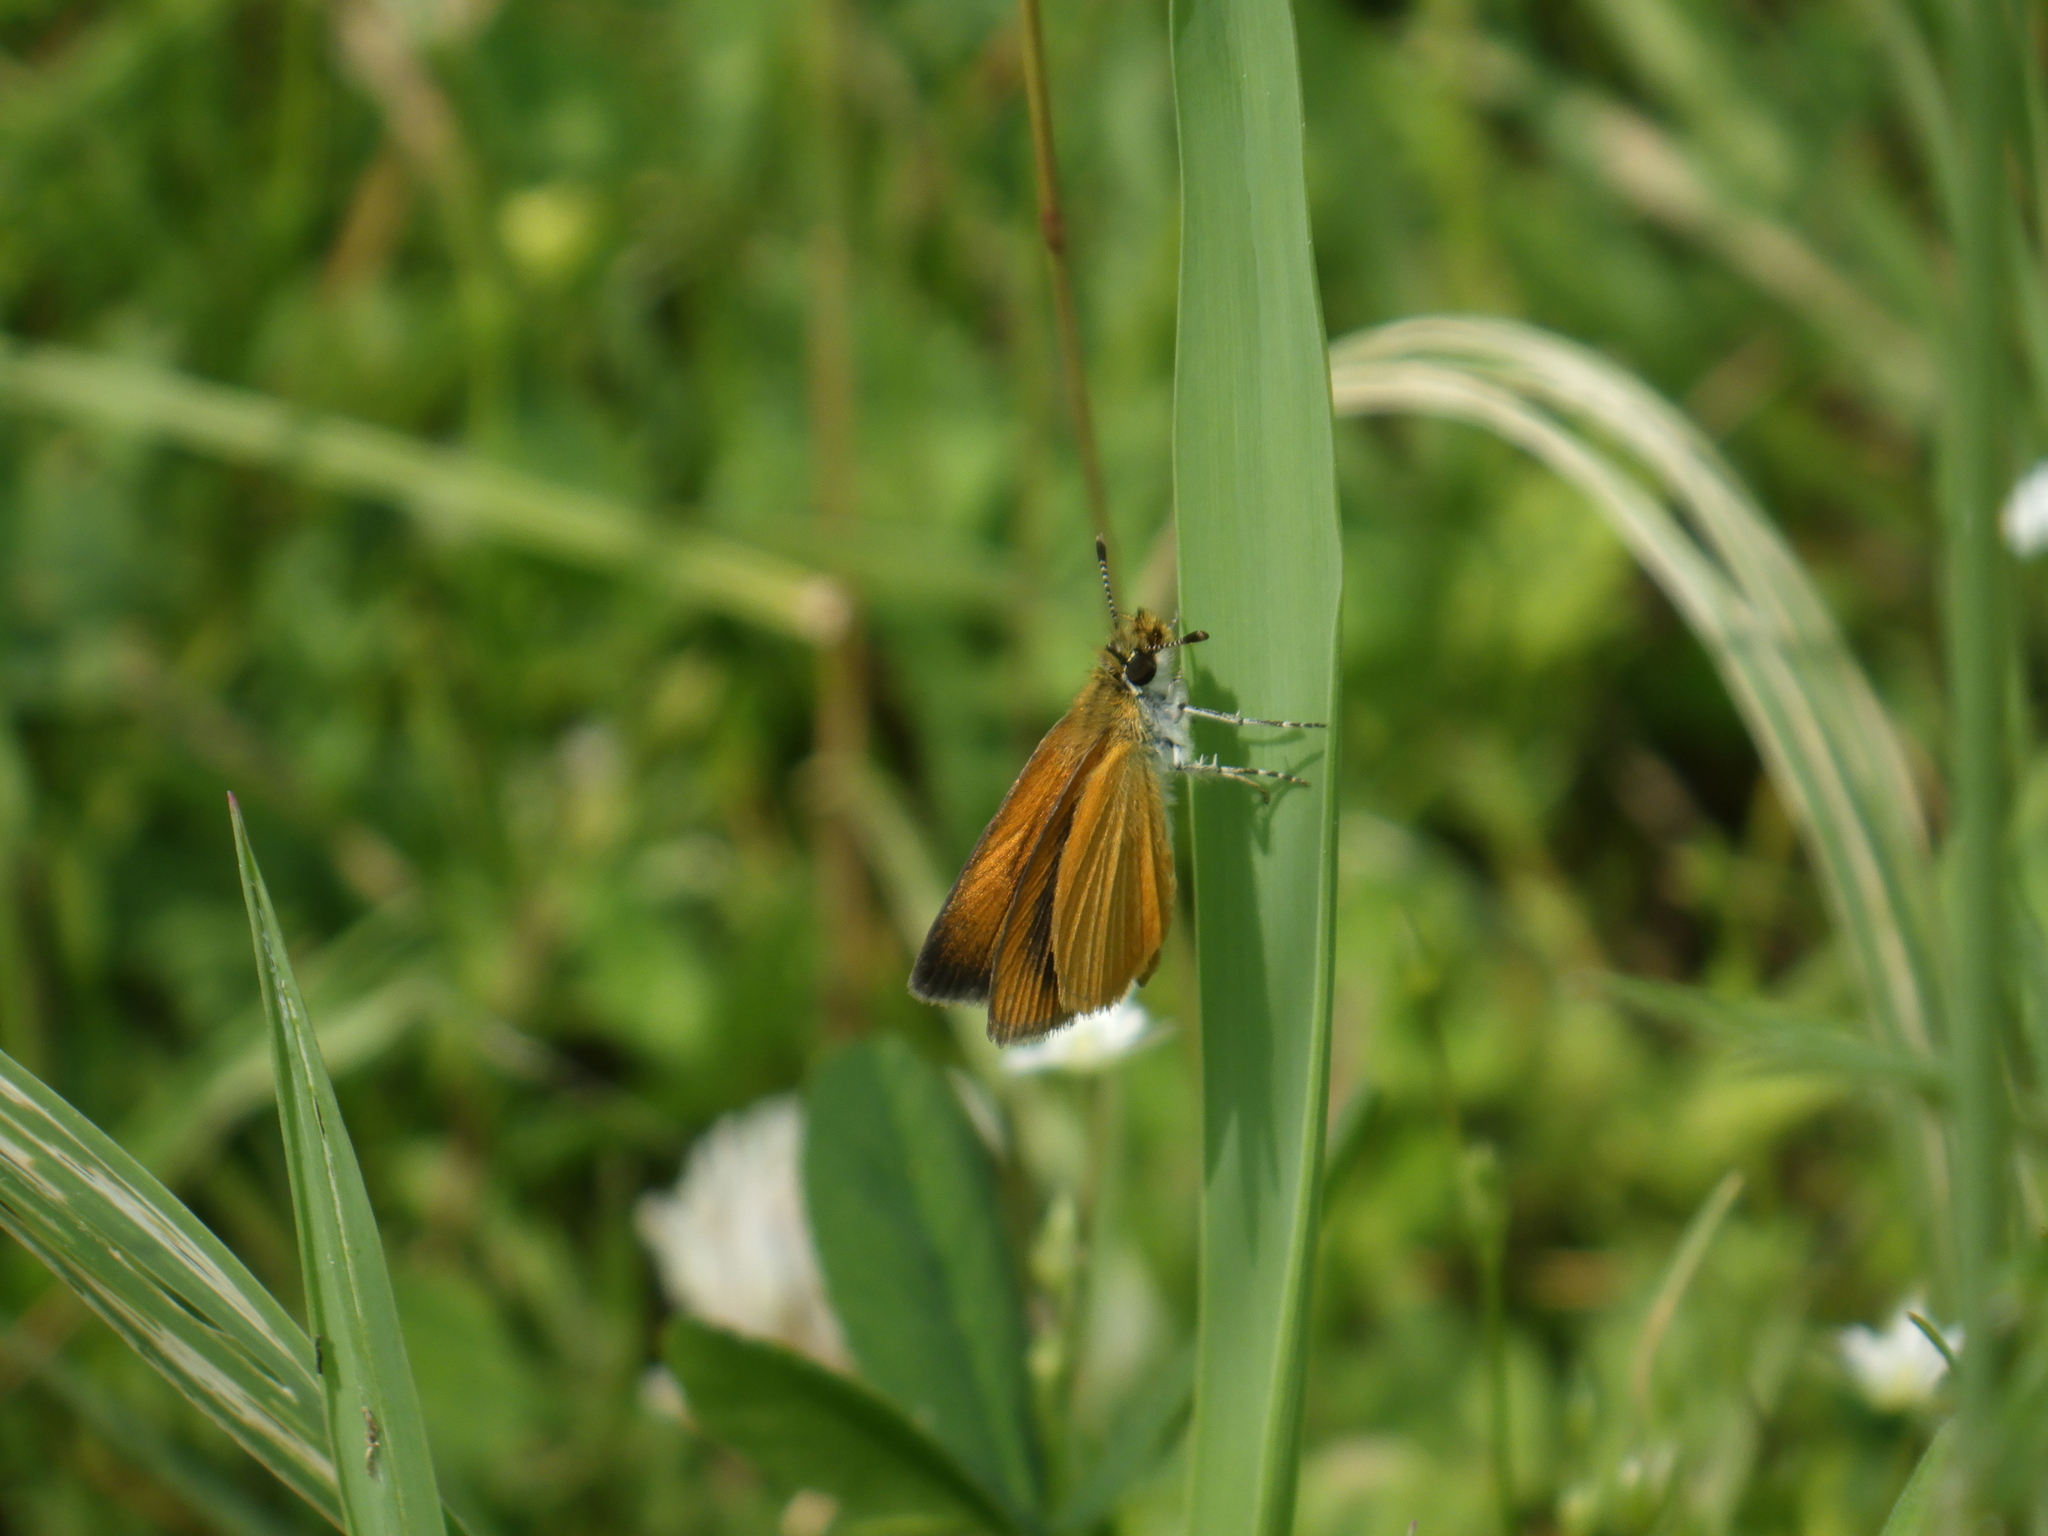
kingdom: Animalia
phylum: Arthropoda
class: Insecta
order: Lepidoptera
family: Hesperiidae
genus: Ancyloxypha
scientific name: Ancyloxypha numitor
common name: Least skipper
